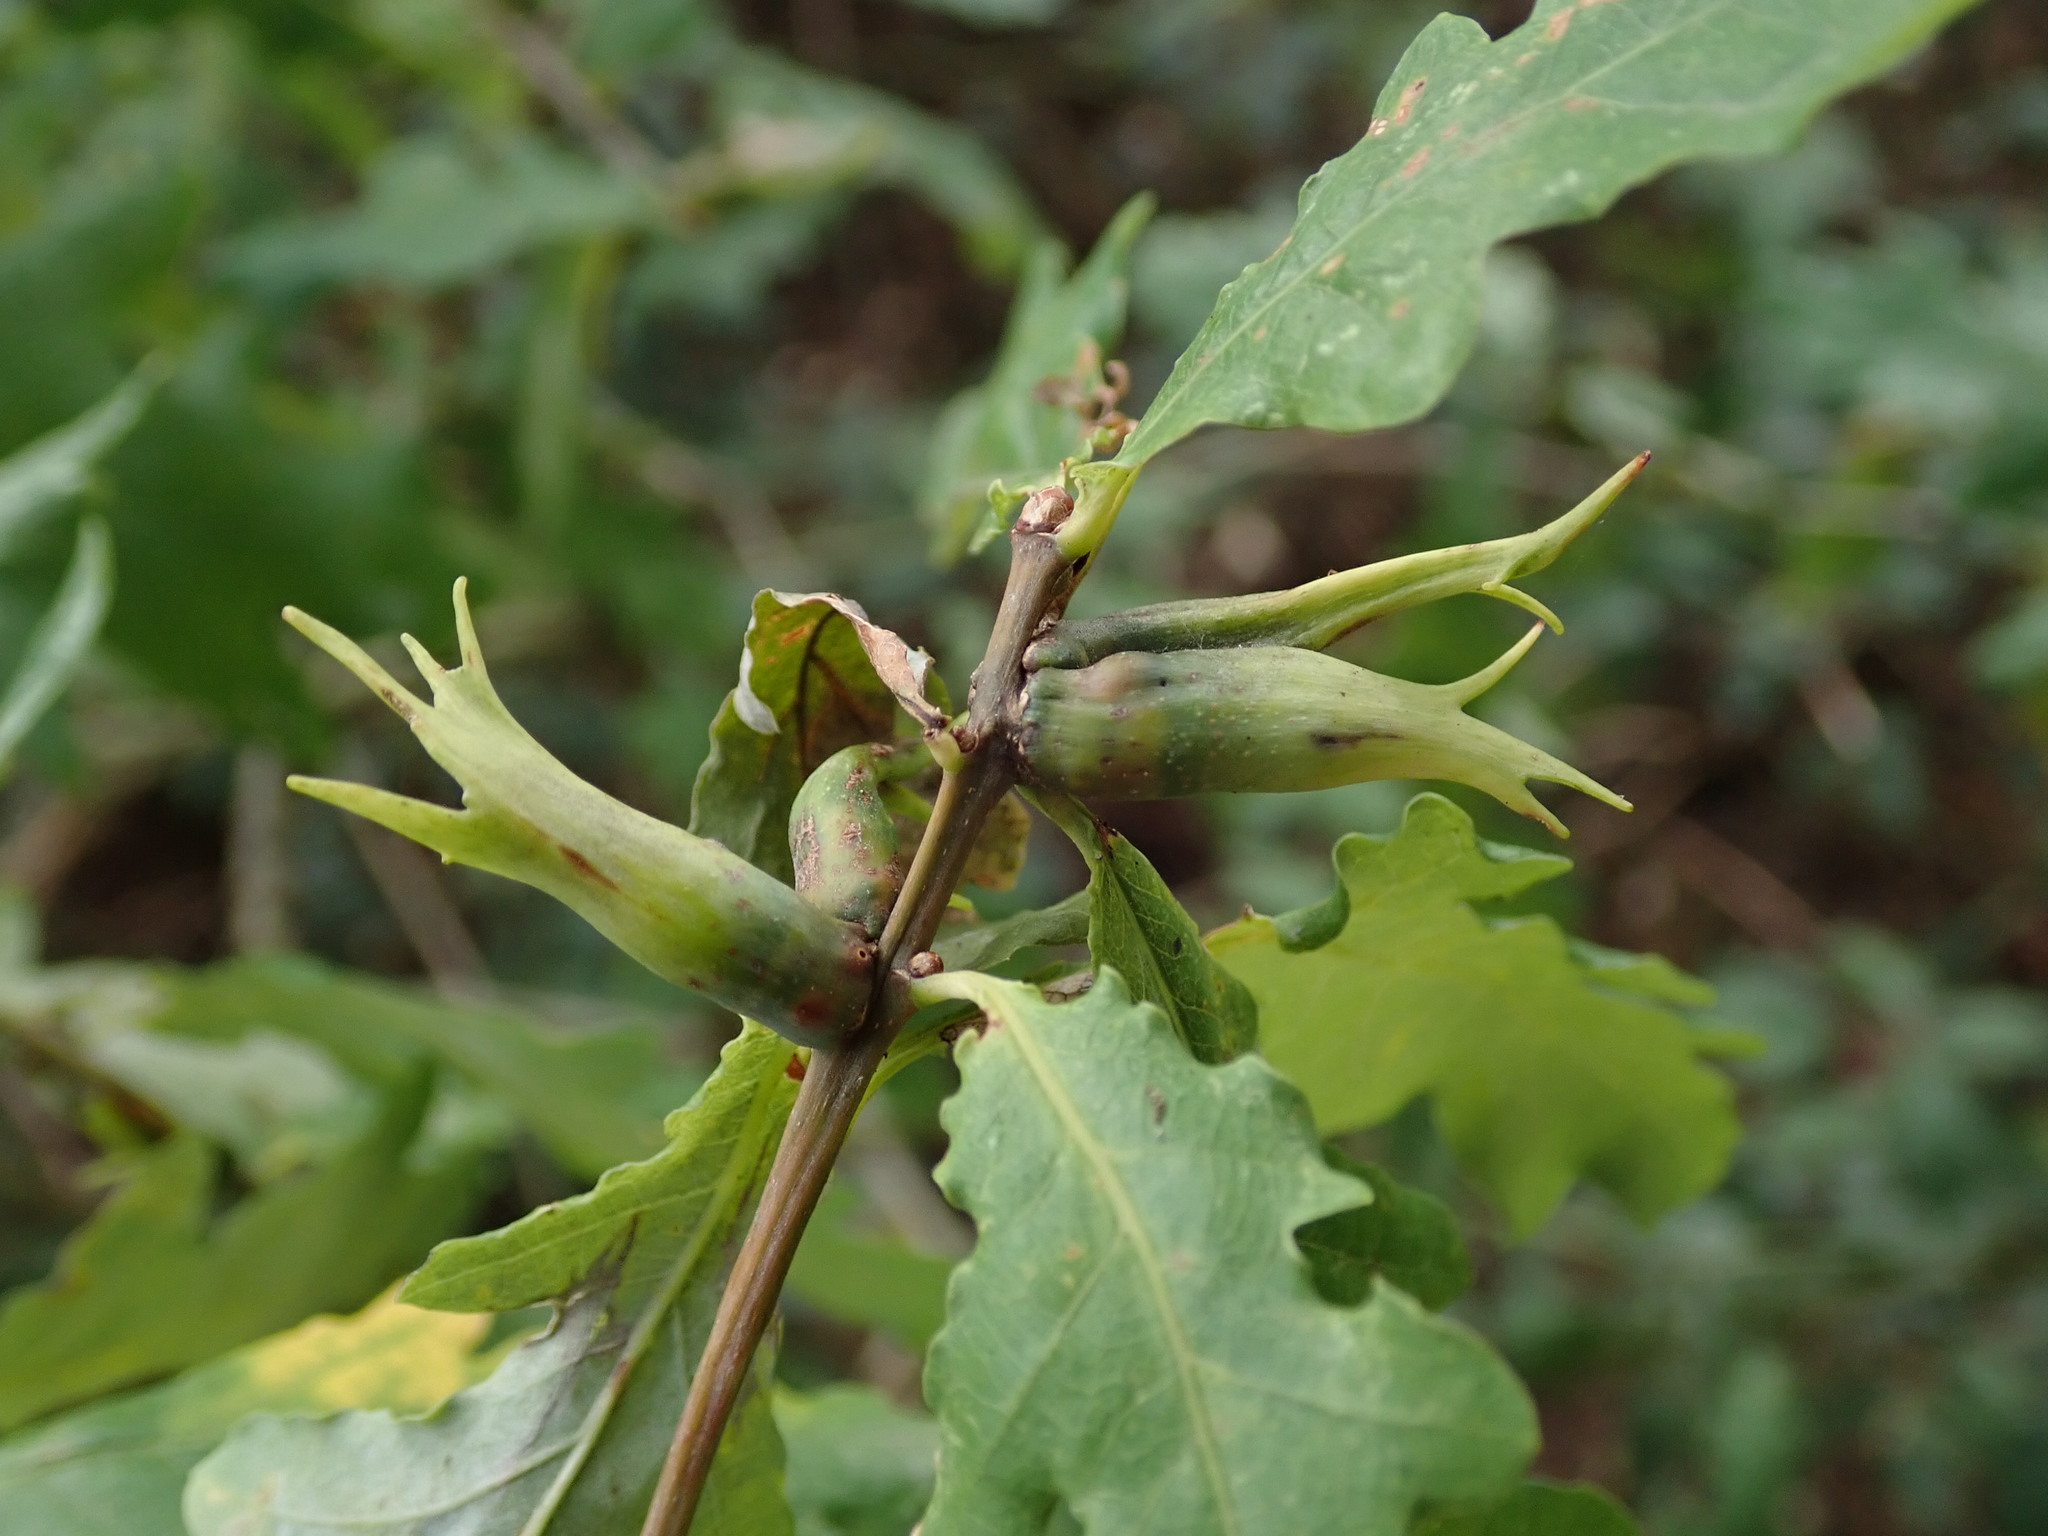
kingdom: Animalia
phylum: Arthropoda
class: Insecta
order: Hymenoptera
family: Cynipidae
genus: Andricus
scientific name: Andricus aries
